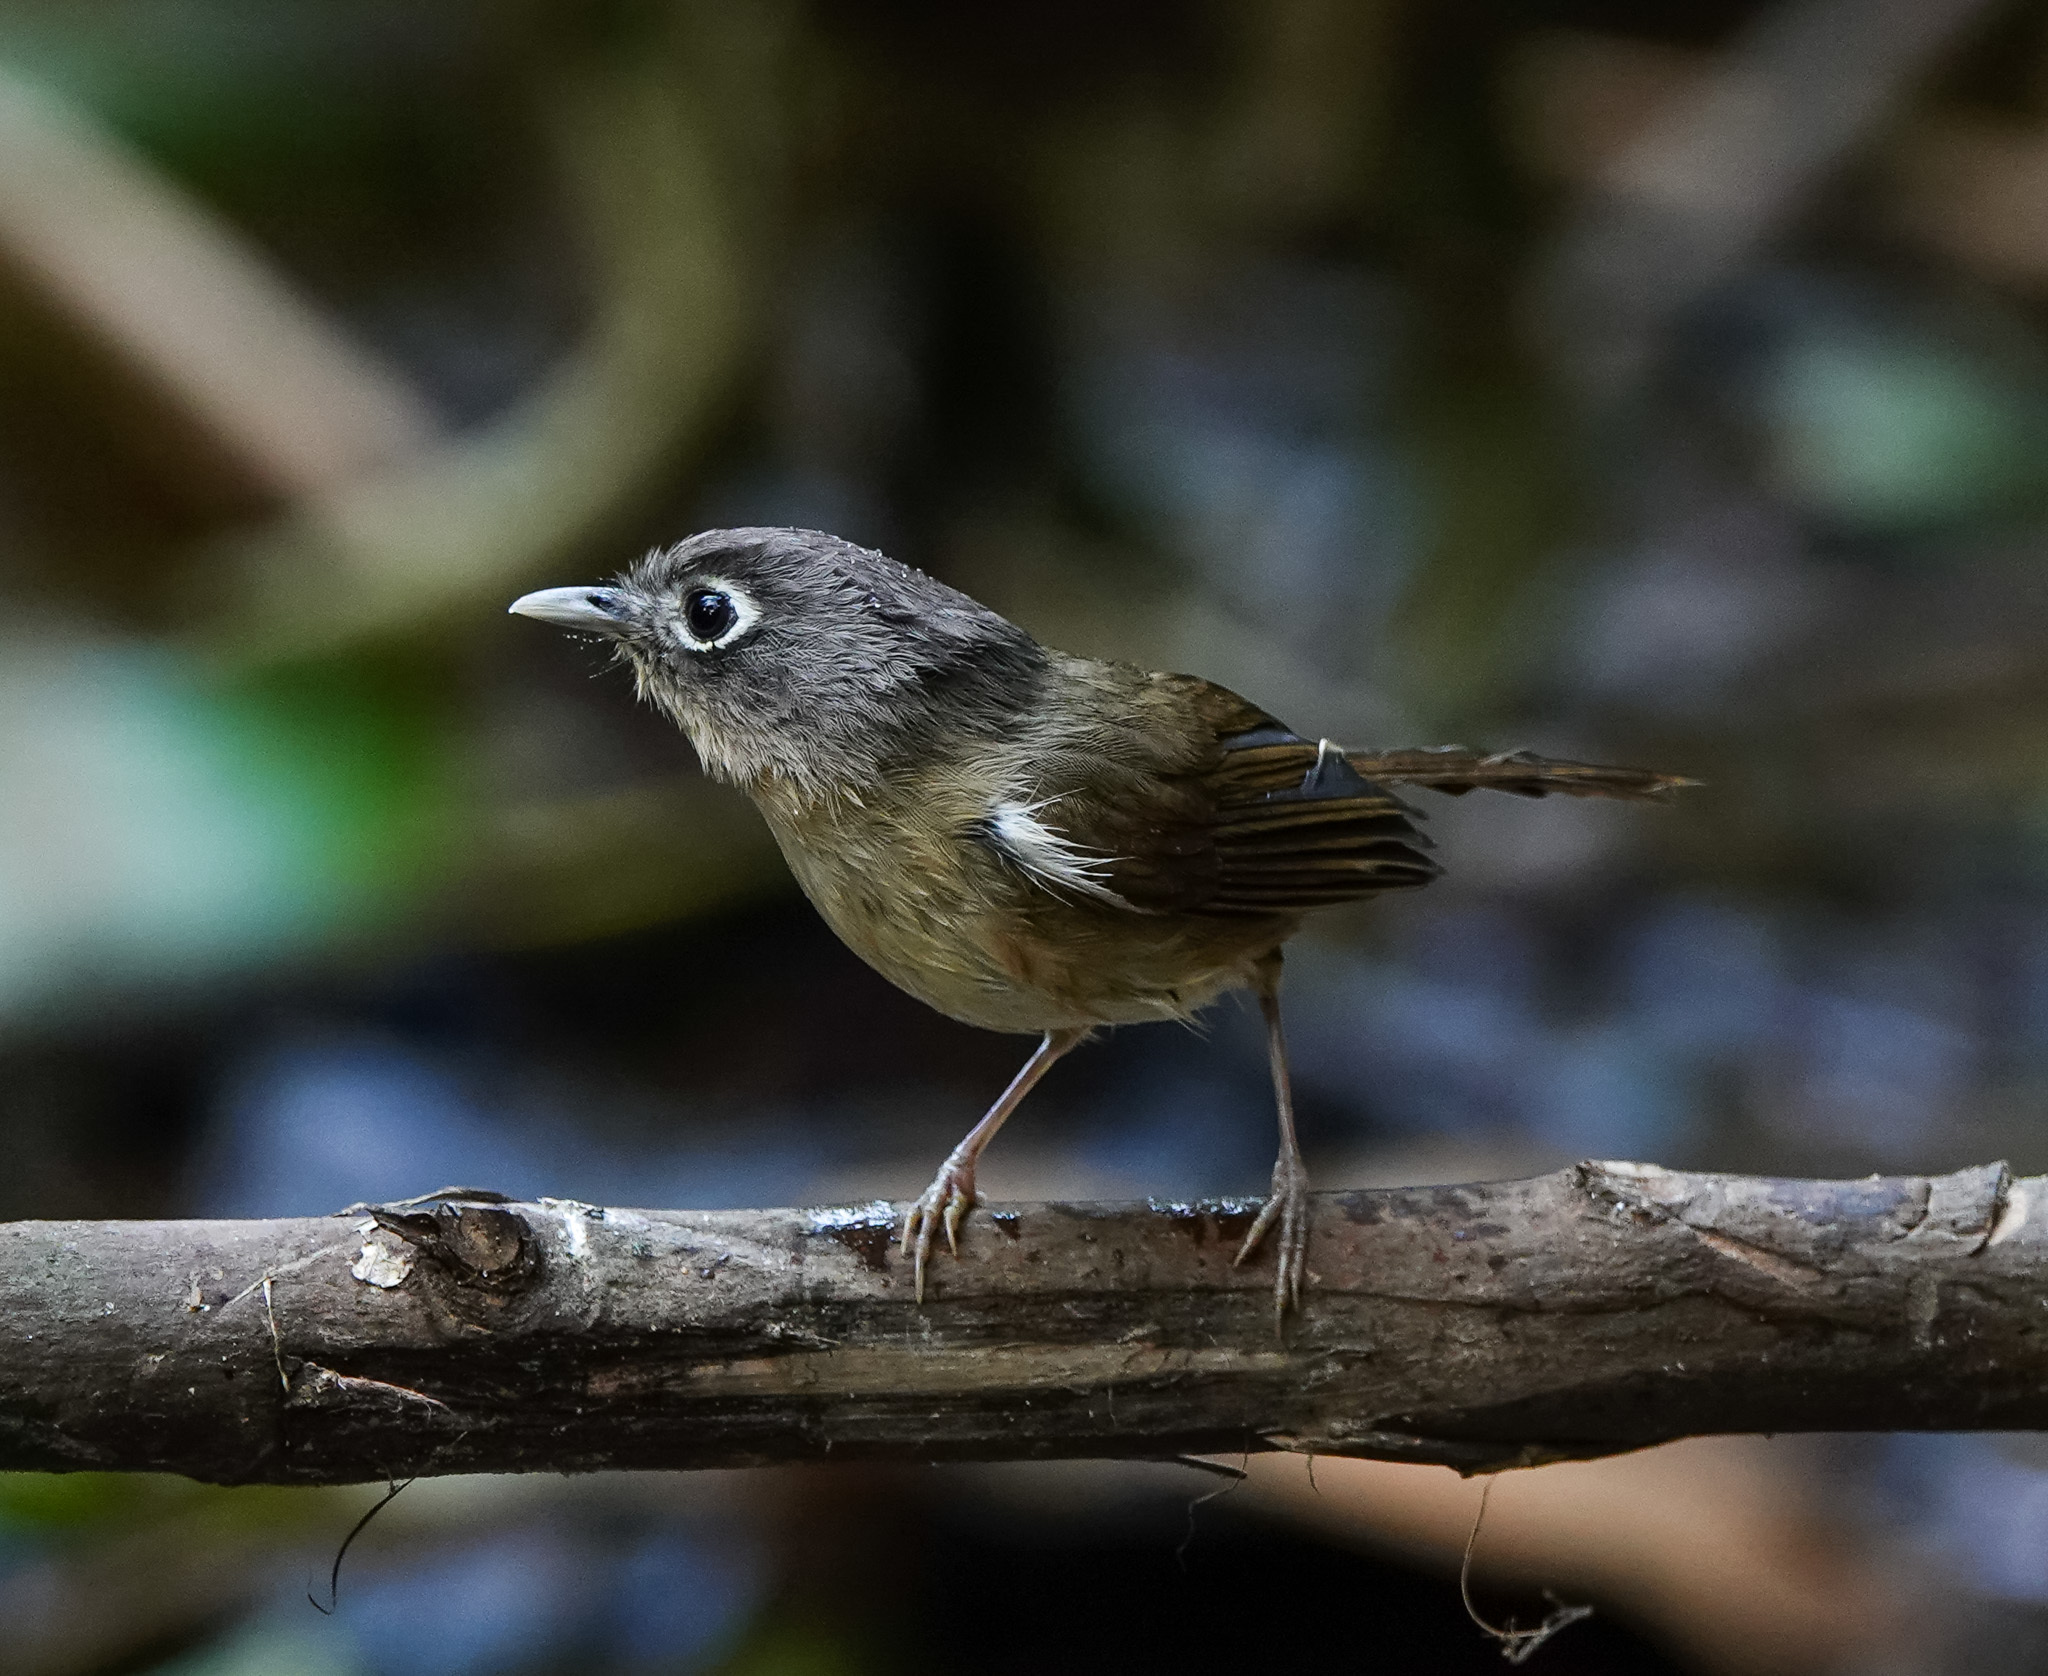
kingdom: Animalia
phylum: Chordata
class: Aves
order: Passeriformes
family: Pellorneidae
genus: Alcippe
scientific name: Alcippe nipalensis
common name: Nepal fulvetta
